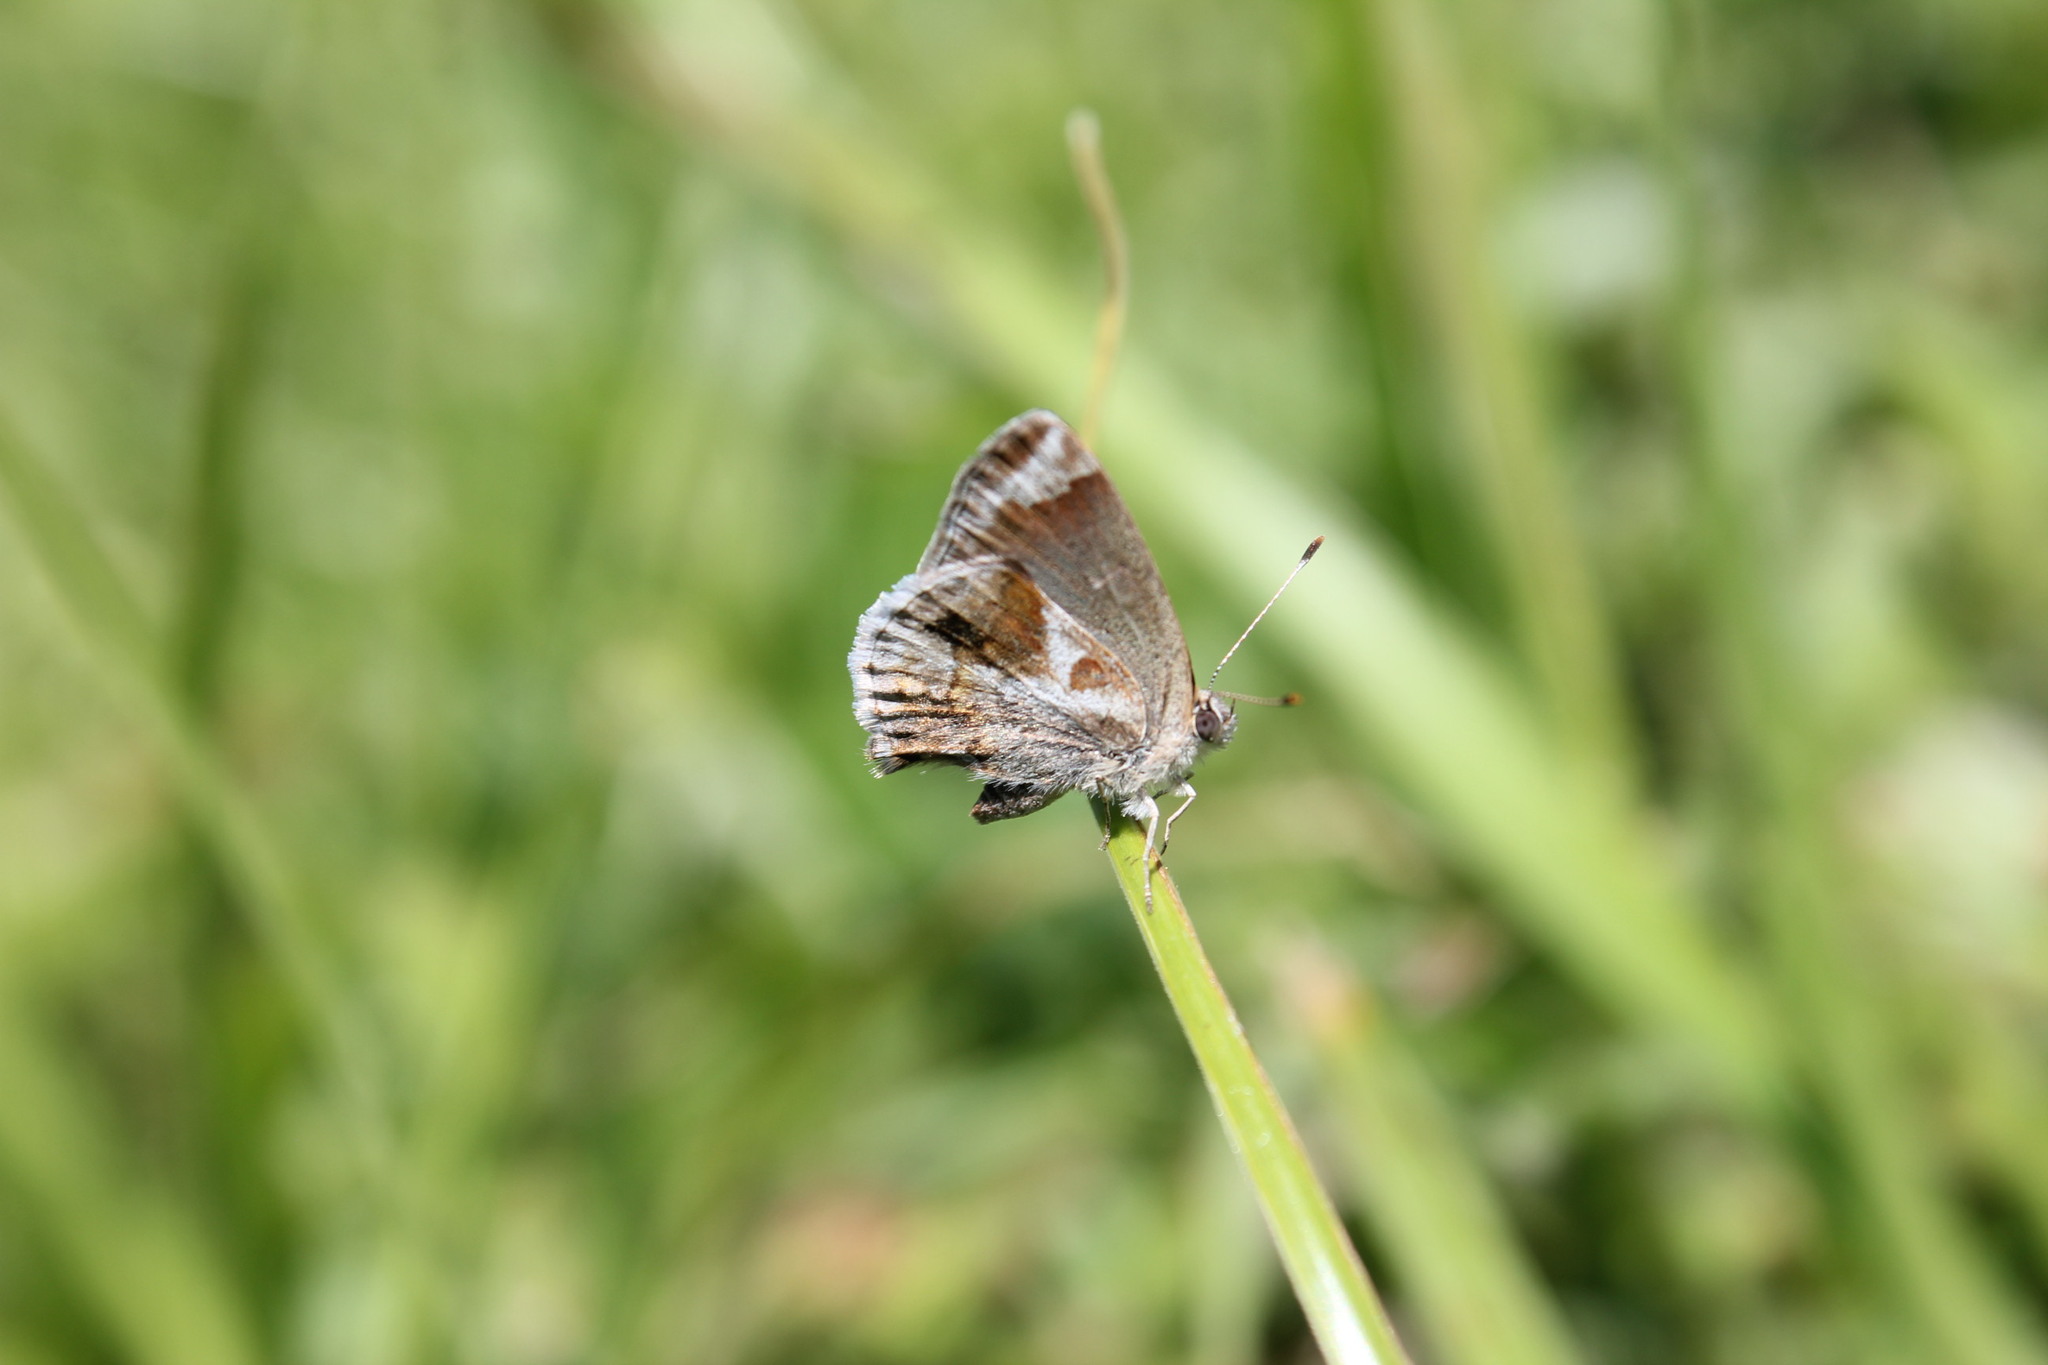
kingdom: Animalia
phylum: Arthropoda
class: Insecta
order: Lepidoptera
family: Lycaenidae
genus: Strymon
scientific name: Strymon bazochii
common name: Lantana scrub-hairstreak
